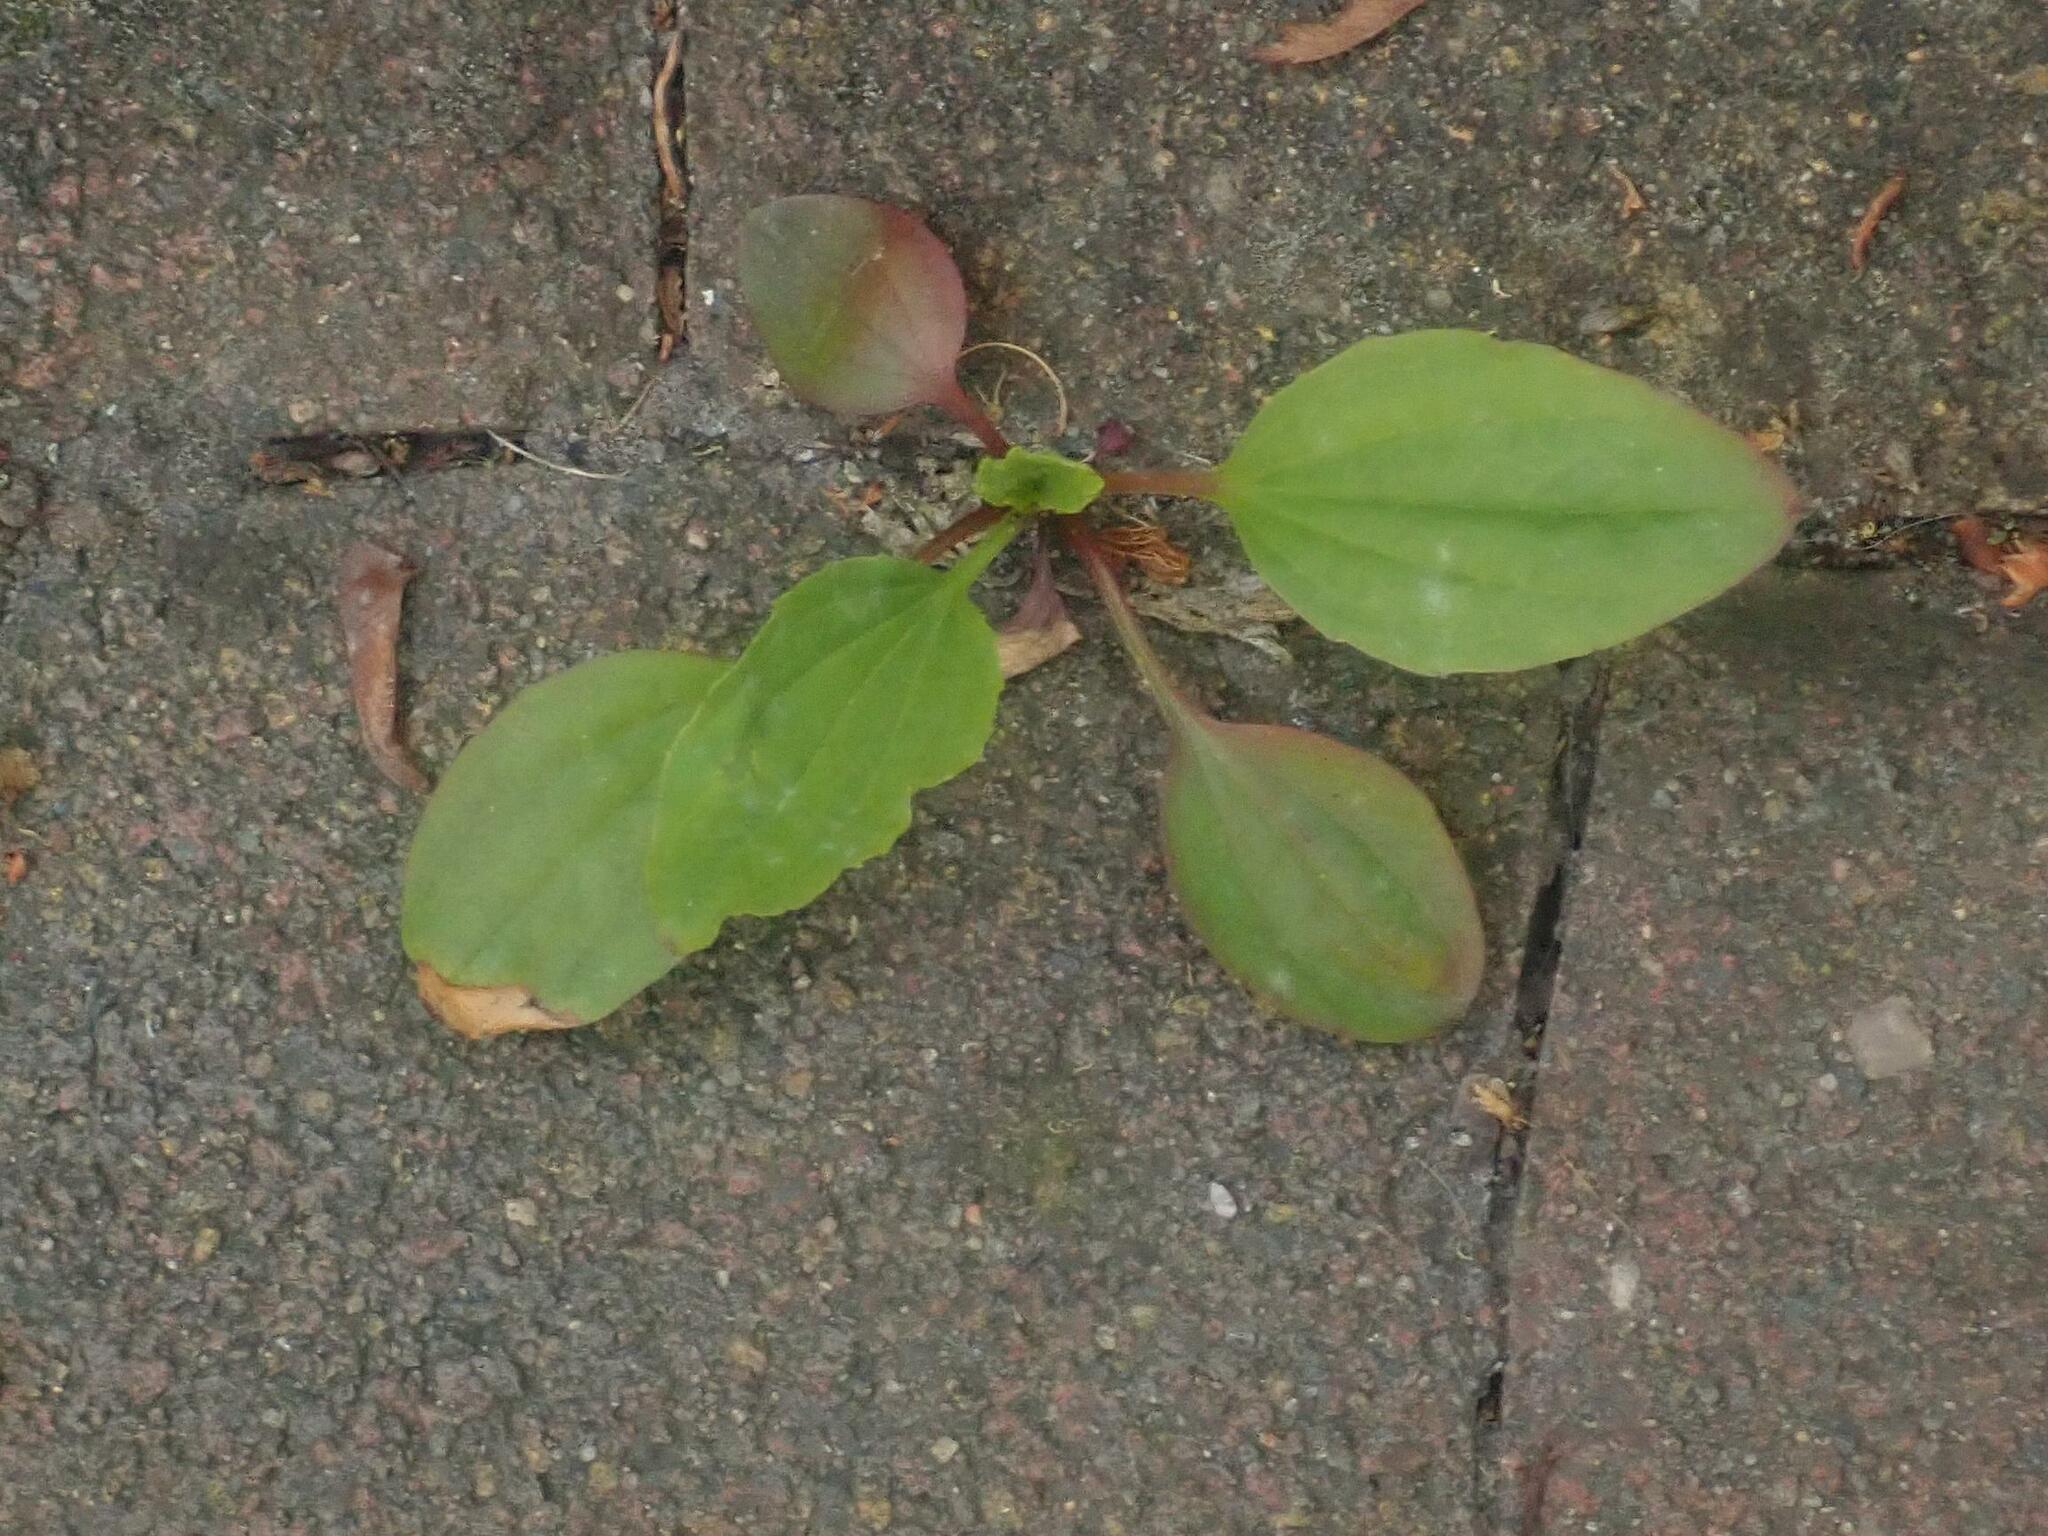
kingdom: Plantae
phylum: Tracheophyta
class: Magnoliopsida
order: Lamiales
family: Plantaginaceae
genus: Plantago
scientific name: Plantago major
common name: Common plantain
